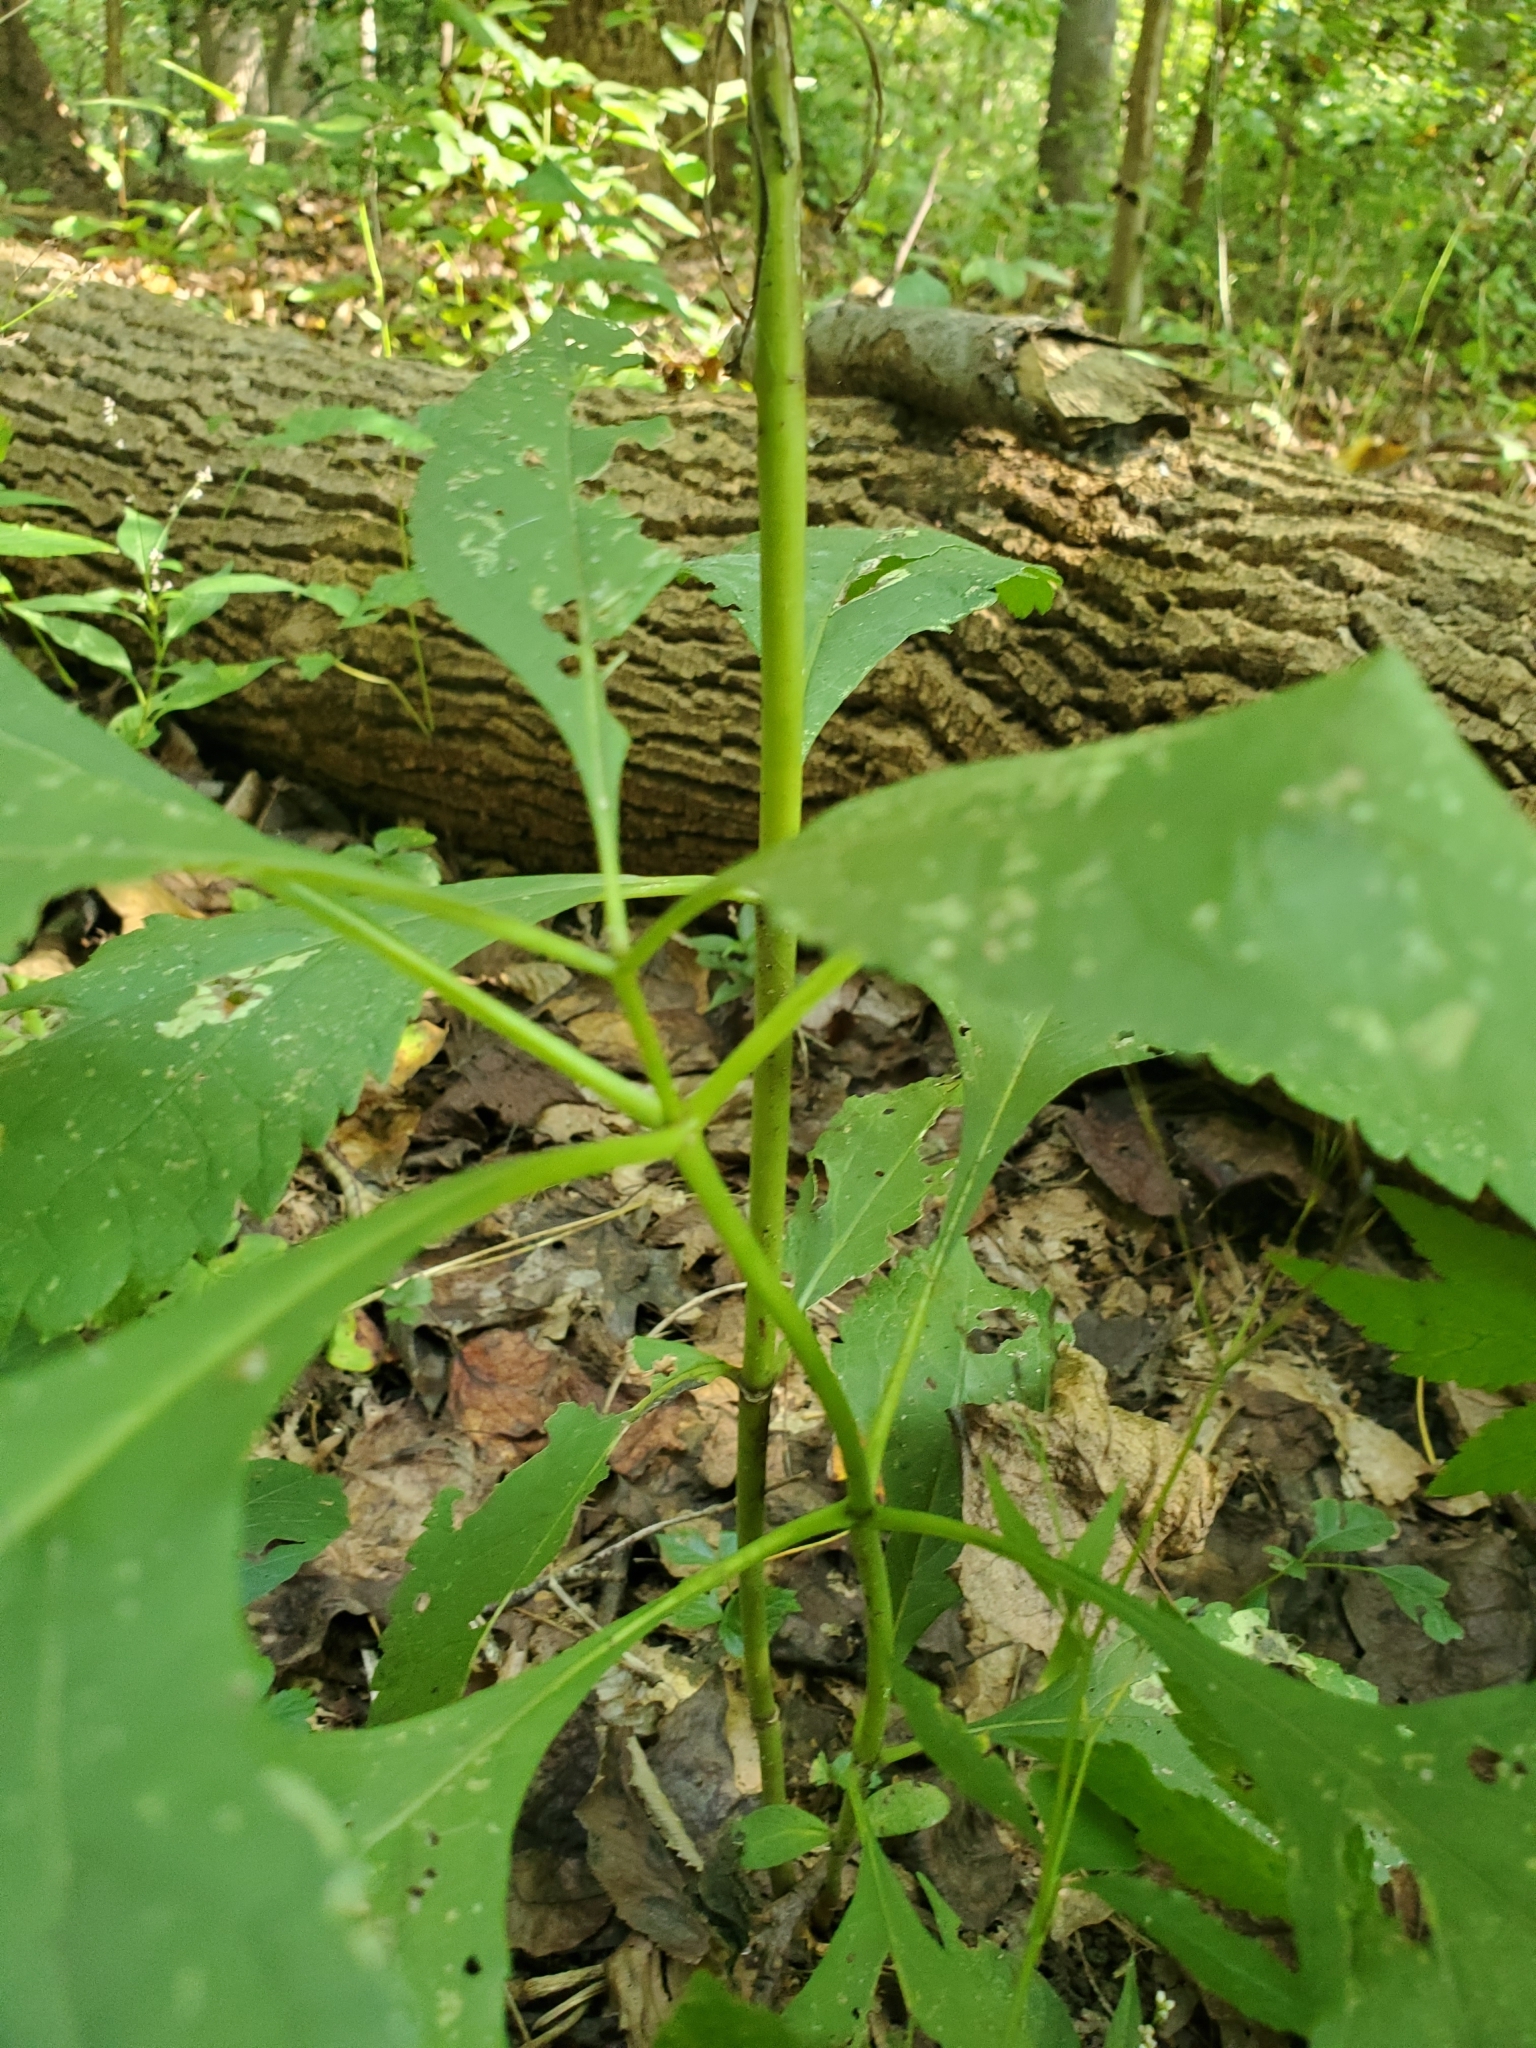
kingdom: Plantae
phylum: Tracheophyta
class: Magnoliopsida
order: Asterales
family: Asteraceae
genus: Eutrochium
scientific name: Eutrochium purpureum
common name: Gravelroot
